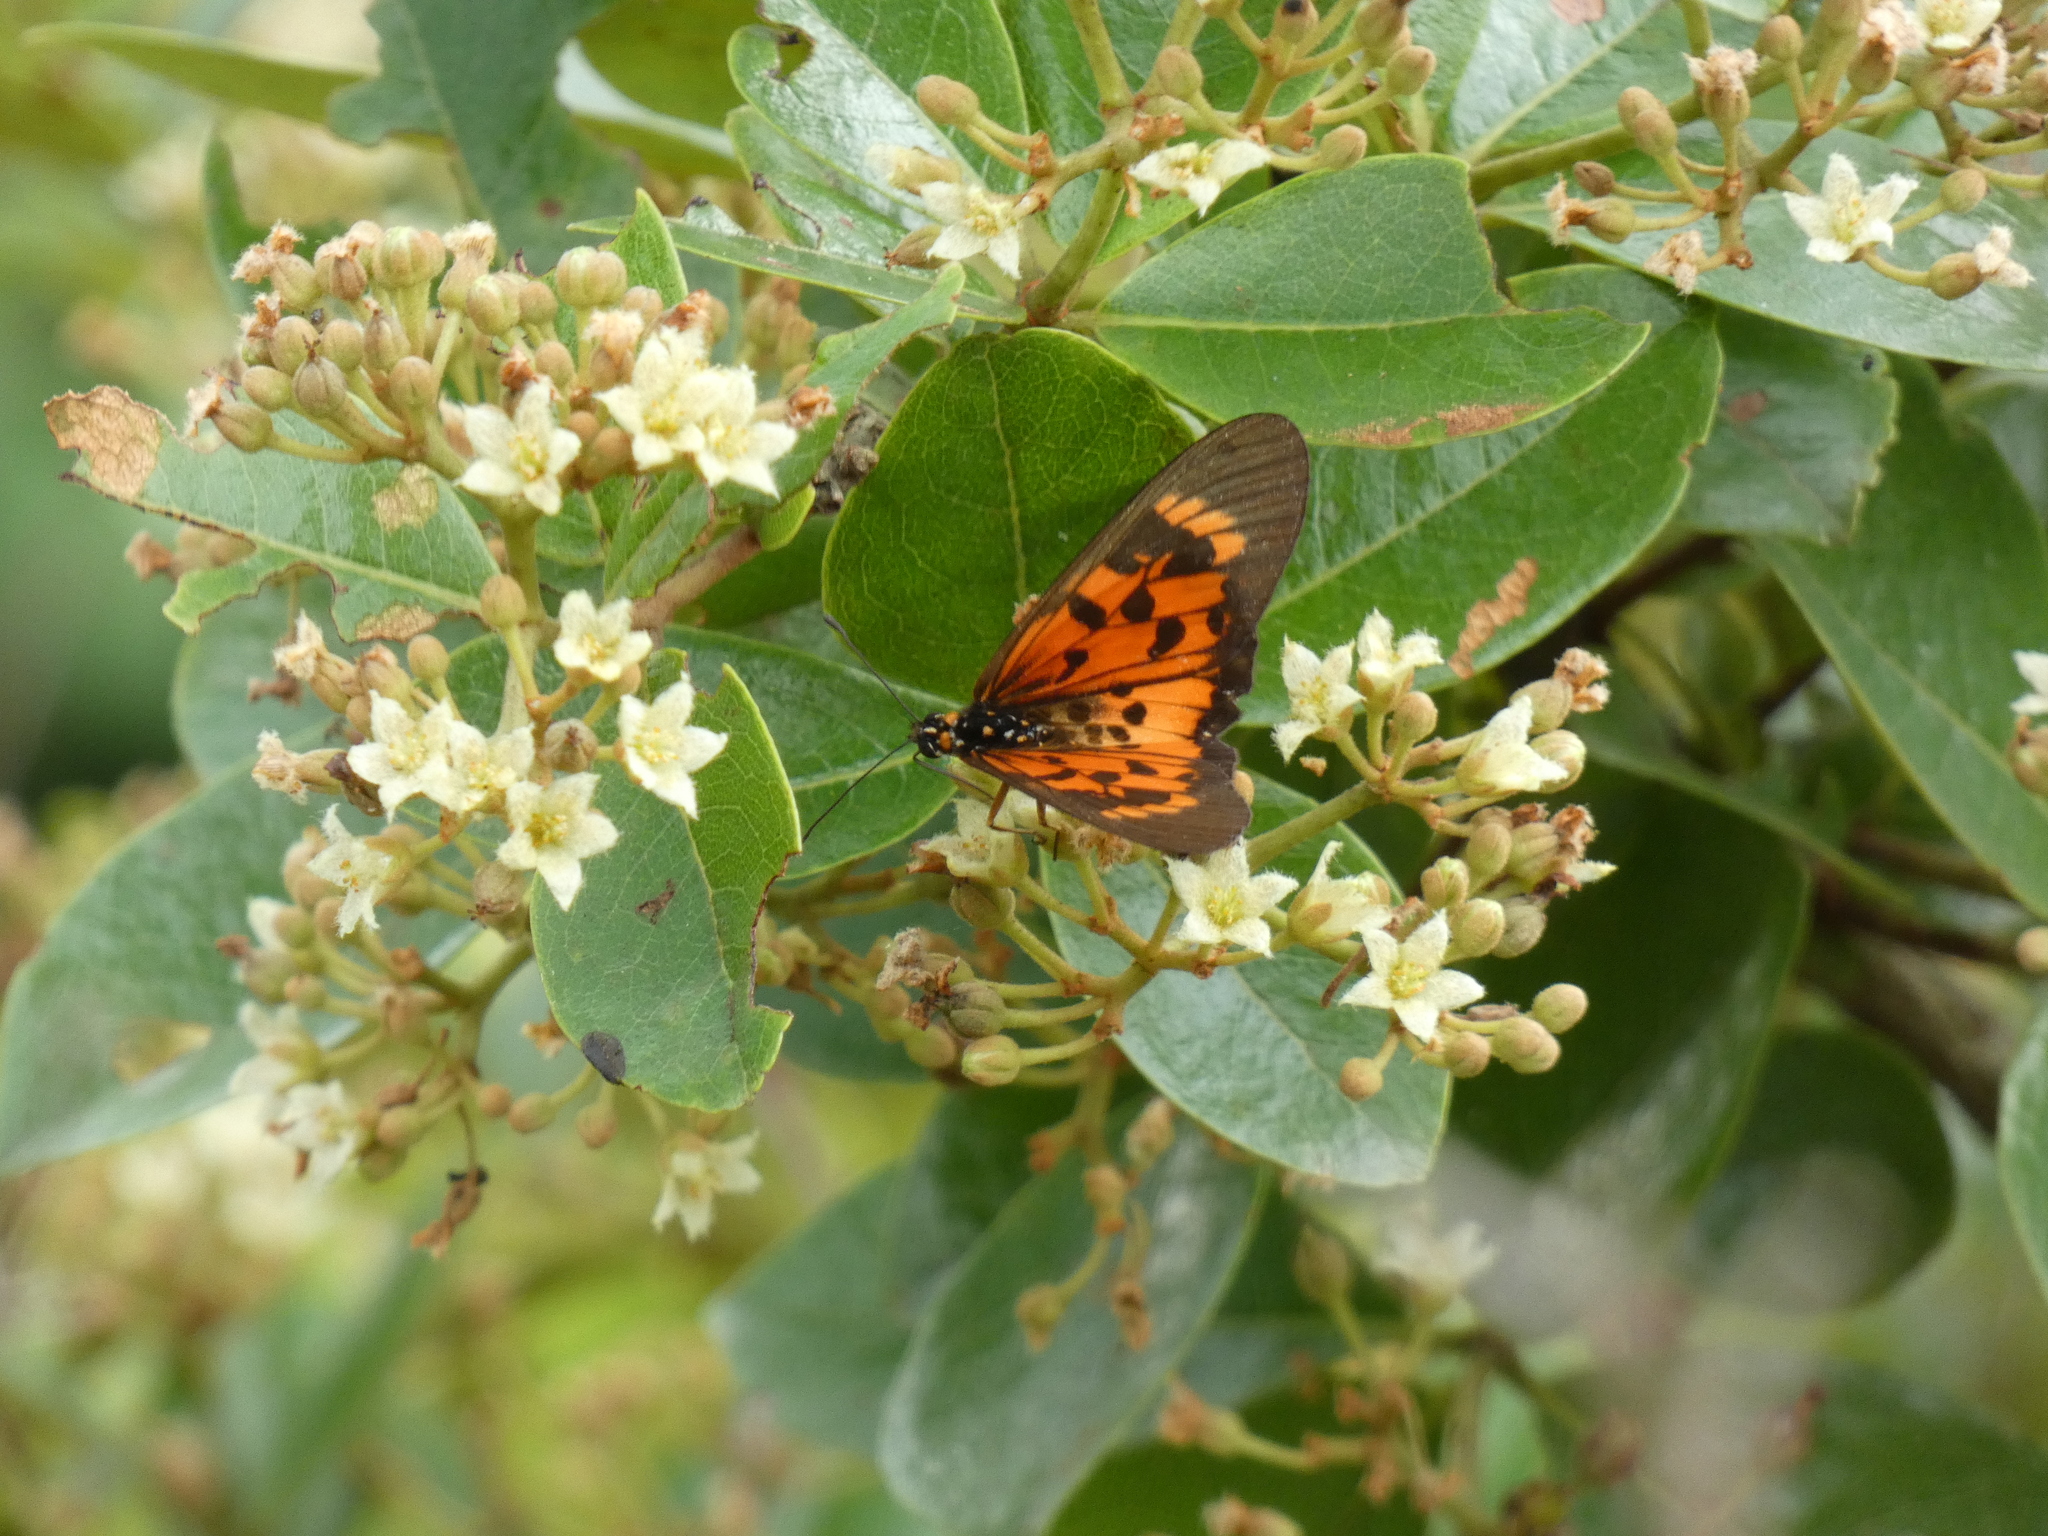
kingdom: Animalia
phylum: Arthropoda
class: Insecta
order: Lepidoptera
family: Nymphalidae
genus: Rubraea
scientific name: Rubraea
